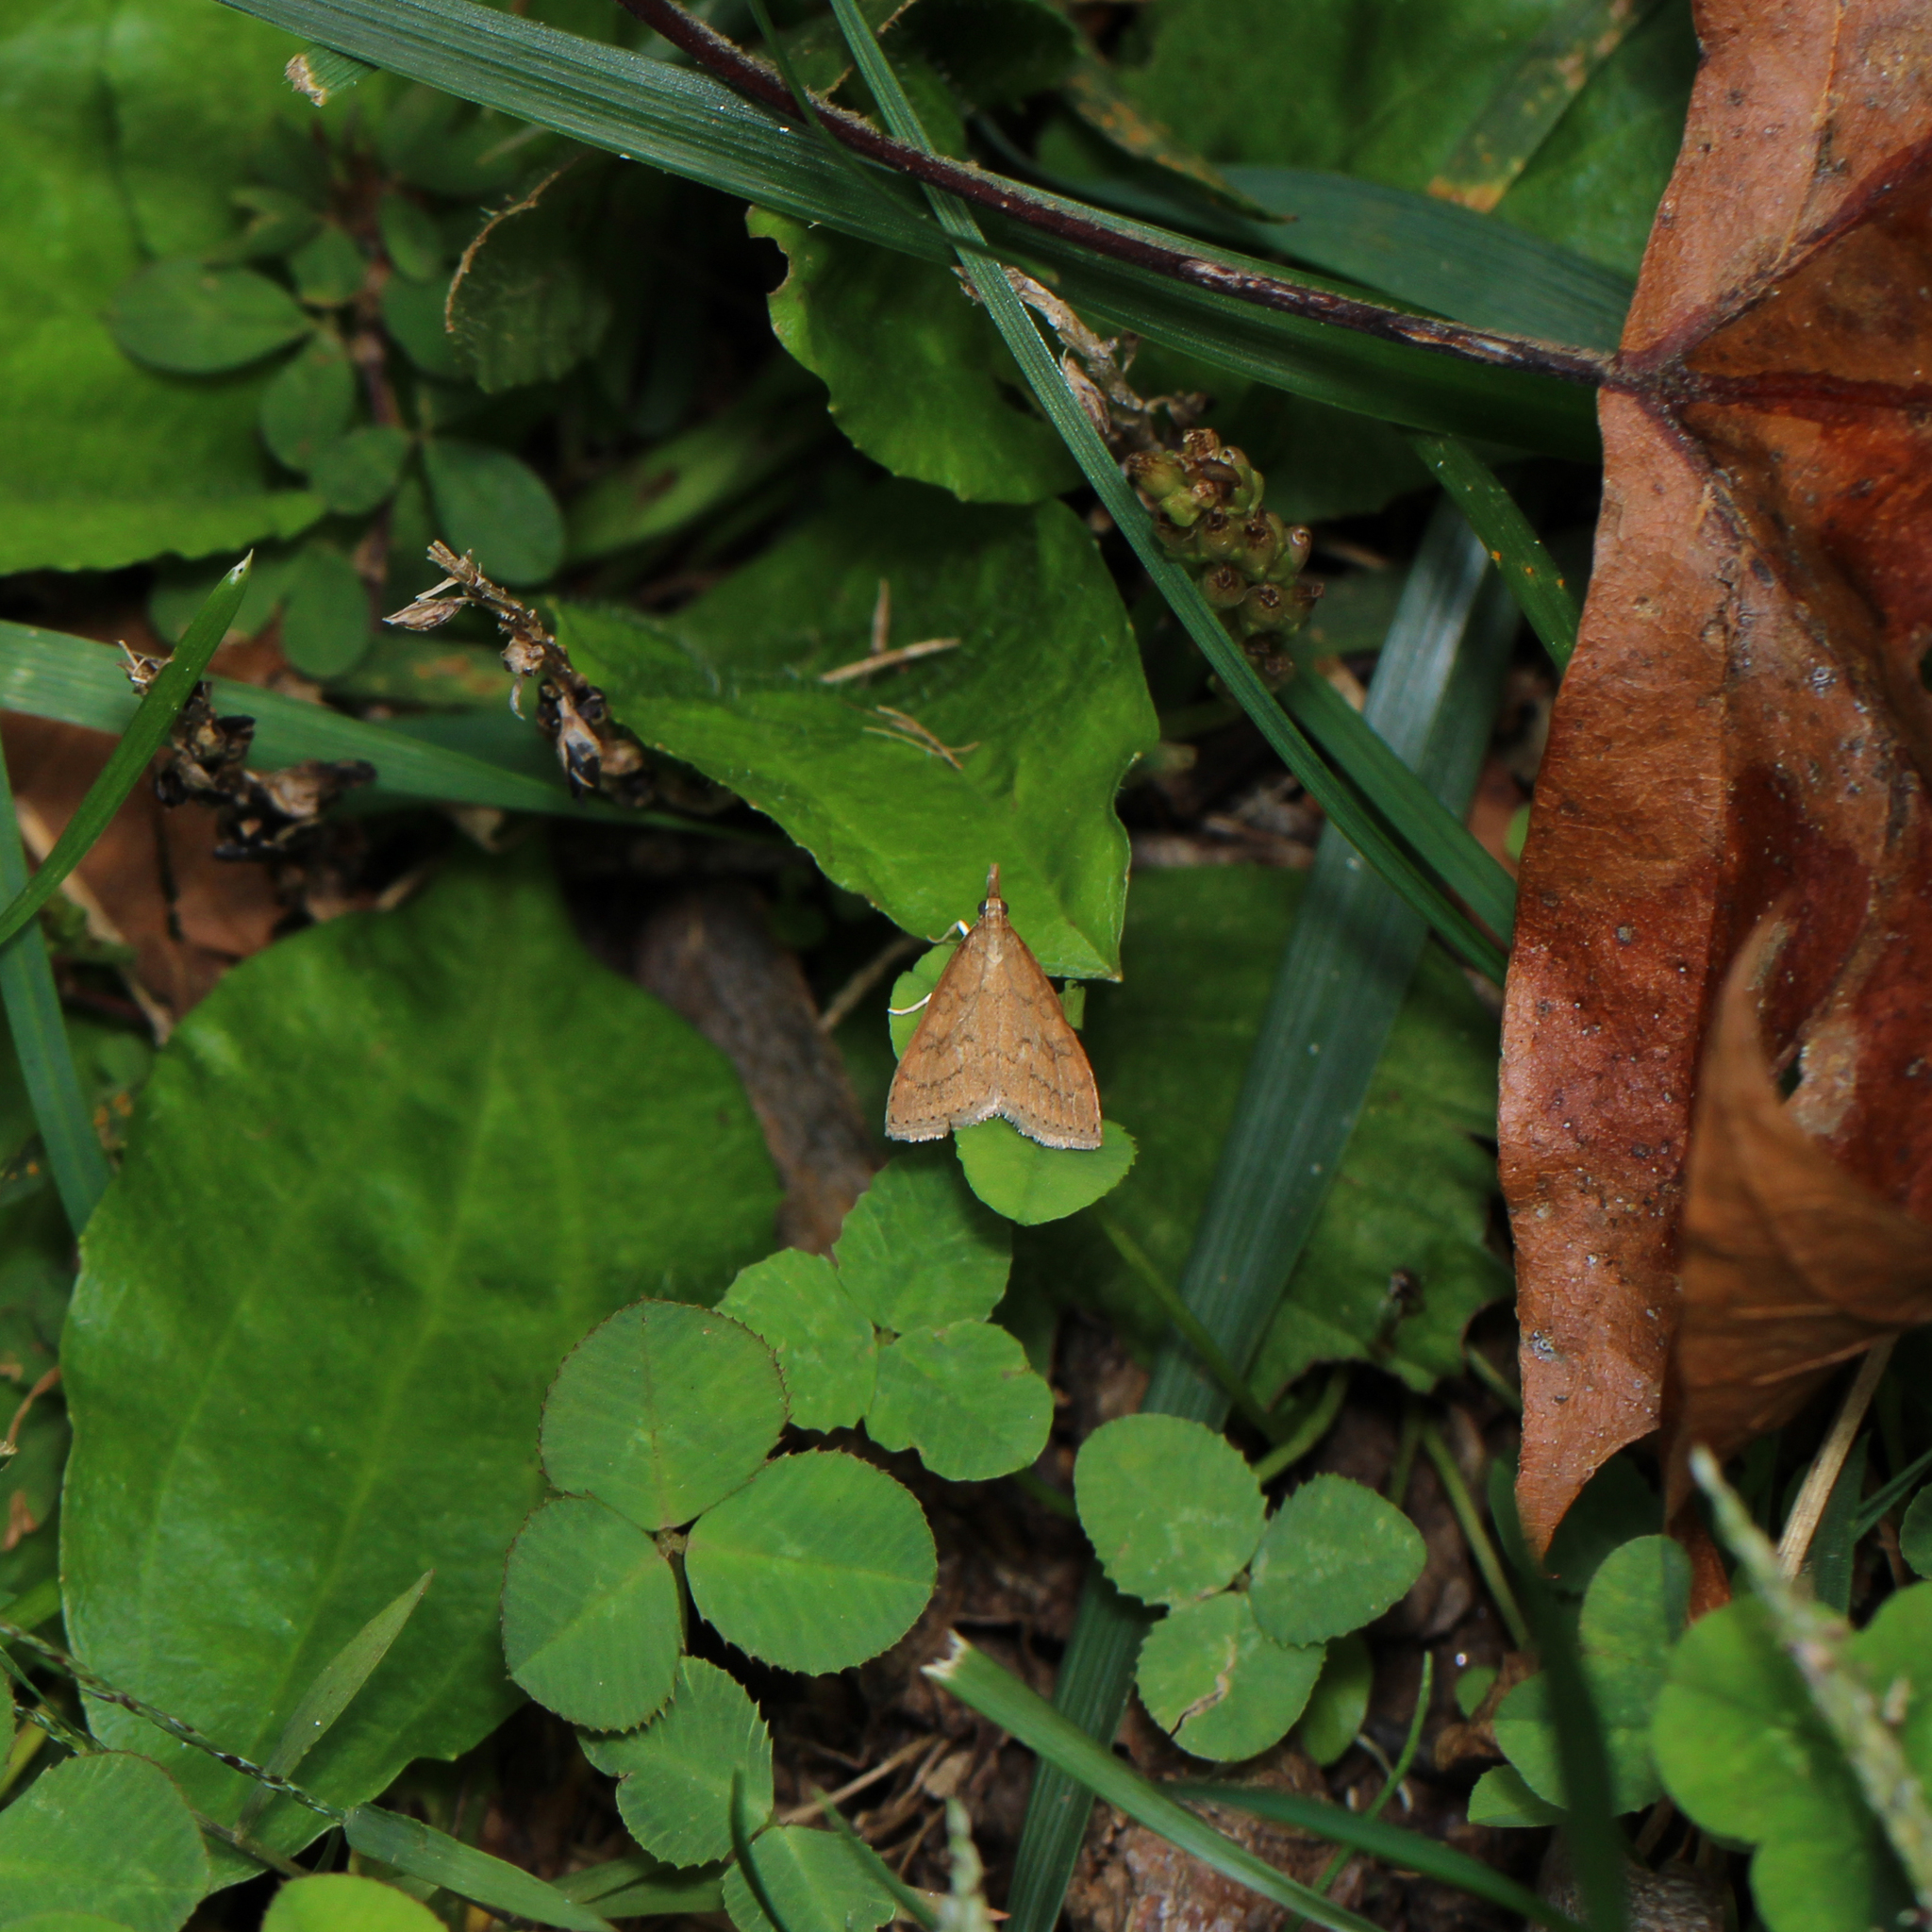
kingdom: Animalia
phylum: Arthropoda
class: Insecta
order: Lepidoptera
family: Crambidae
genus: Udea
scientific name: Udea rubigalis
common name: Celery leaftier moth
